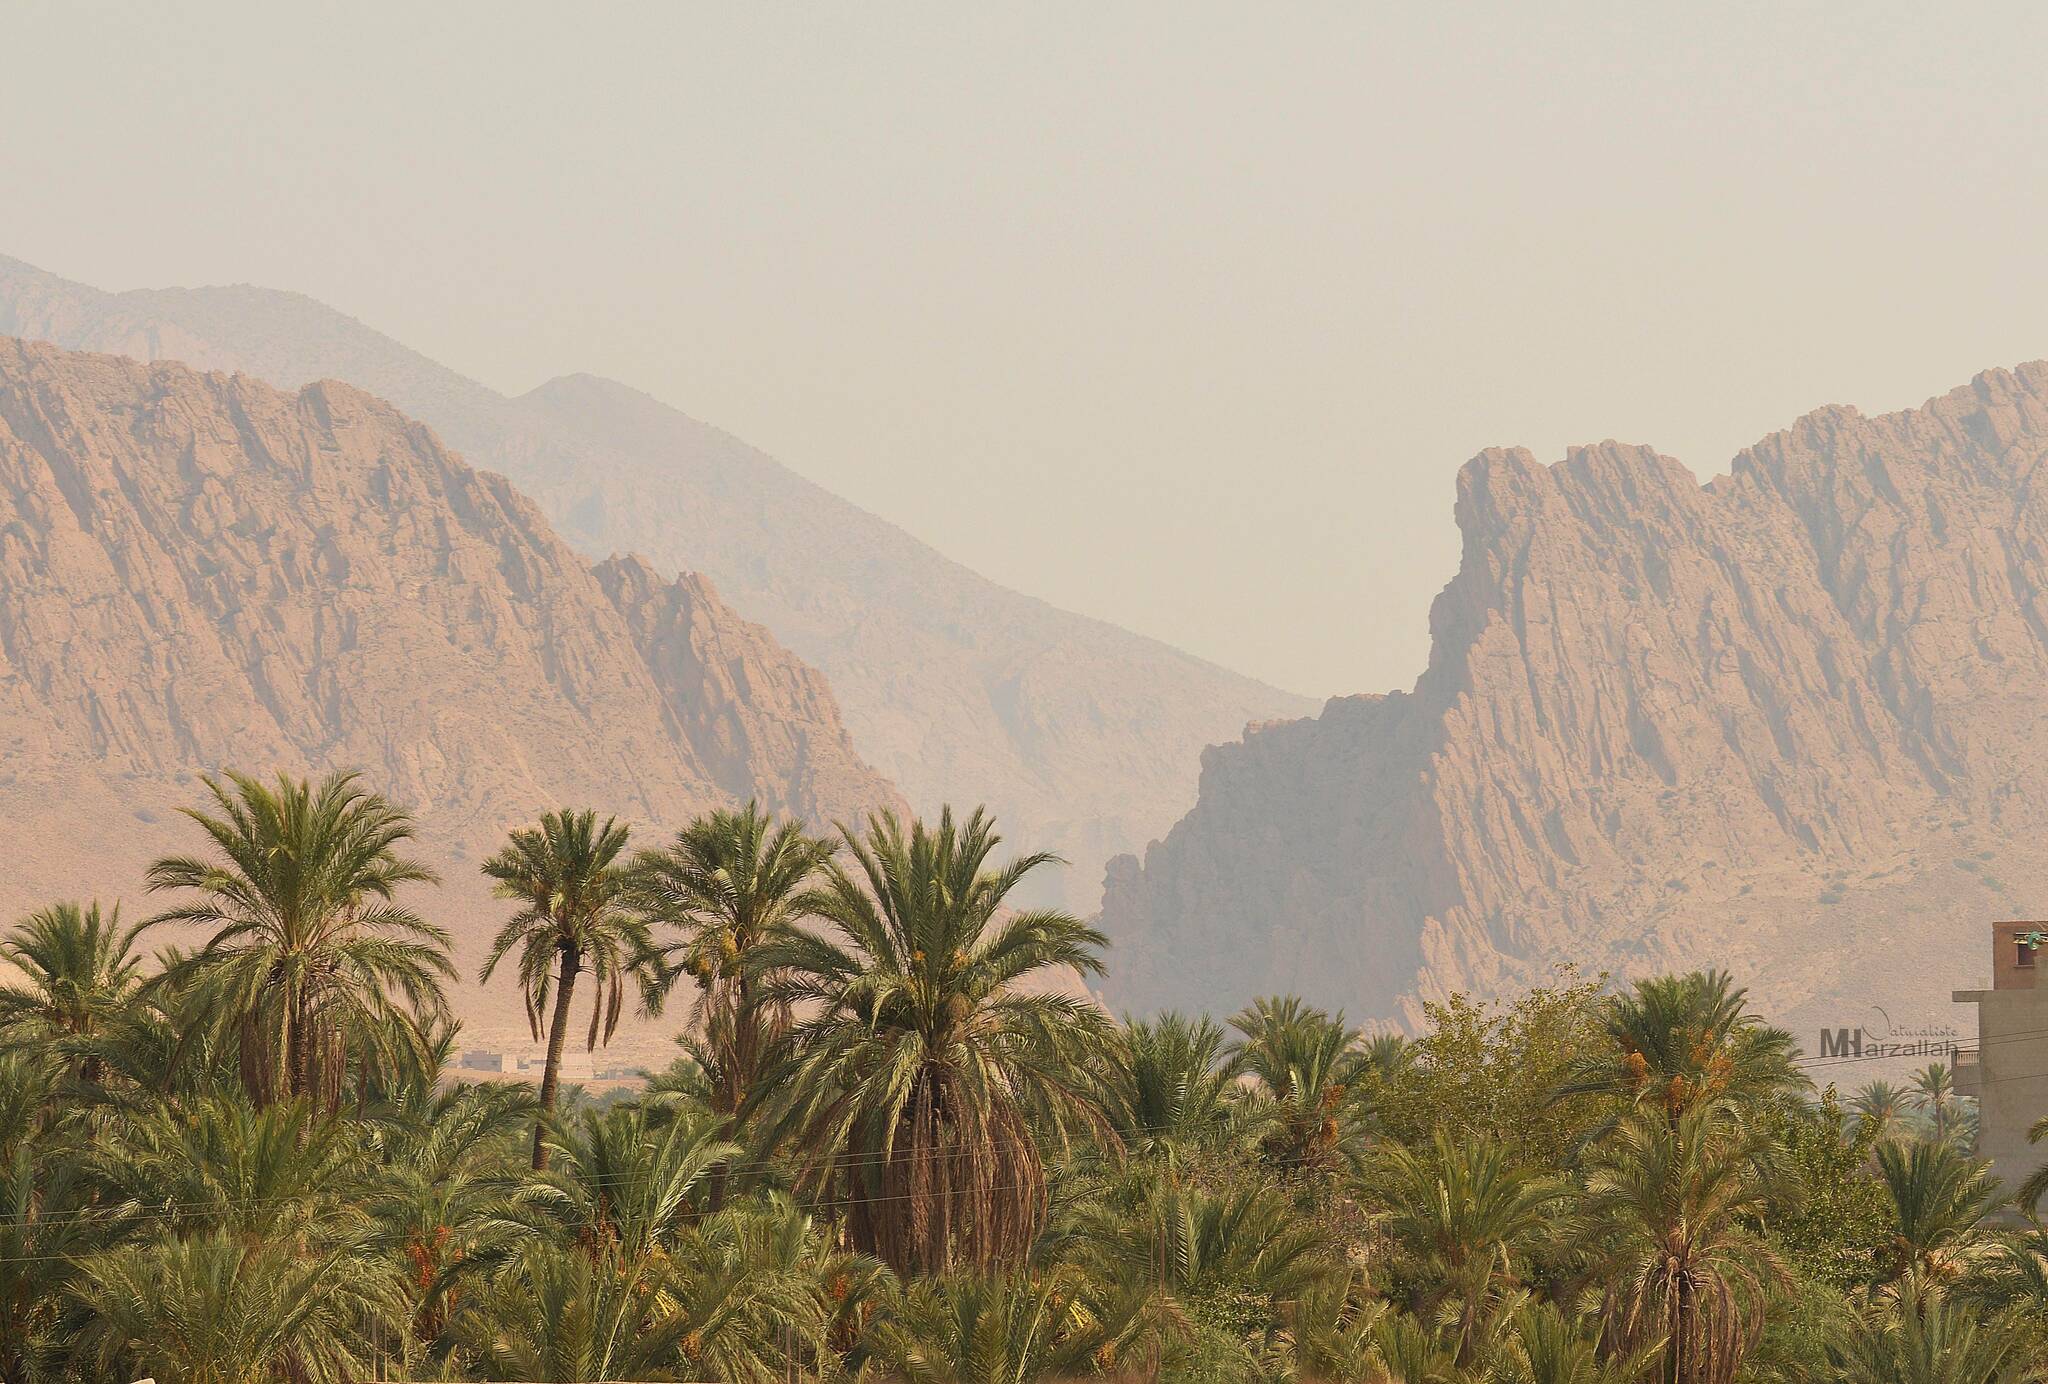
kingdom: Plantae
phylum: Tracheophyta
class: Liliopsida
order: Arecales
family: Arecaceae
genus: Phoenix
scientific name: Phoenix dactylifera
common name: Date palm
